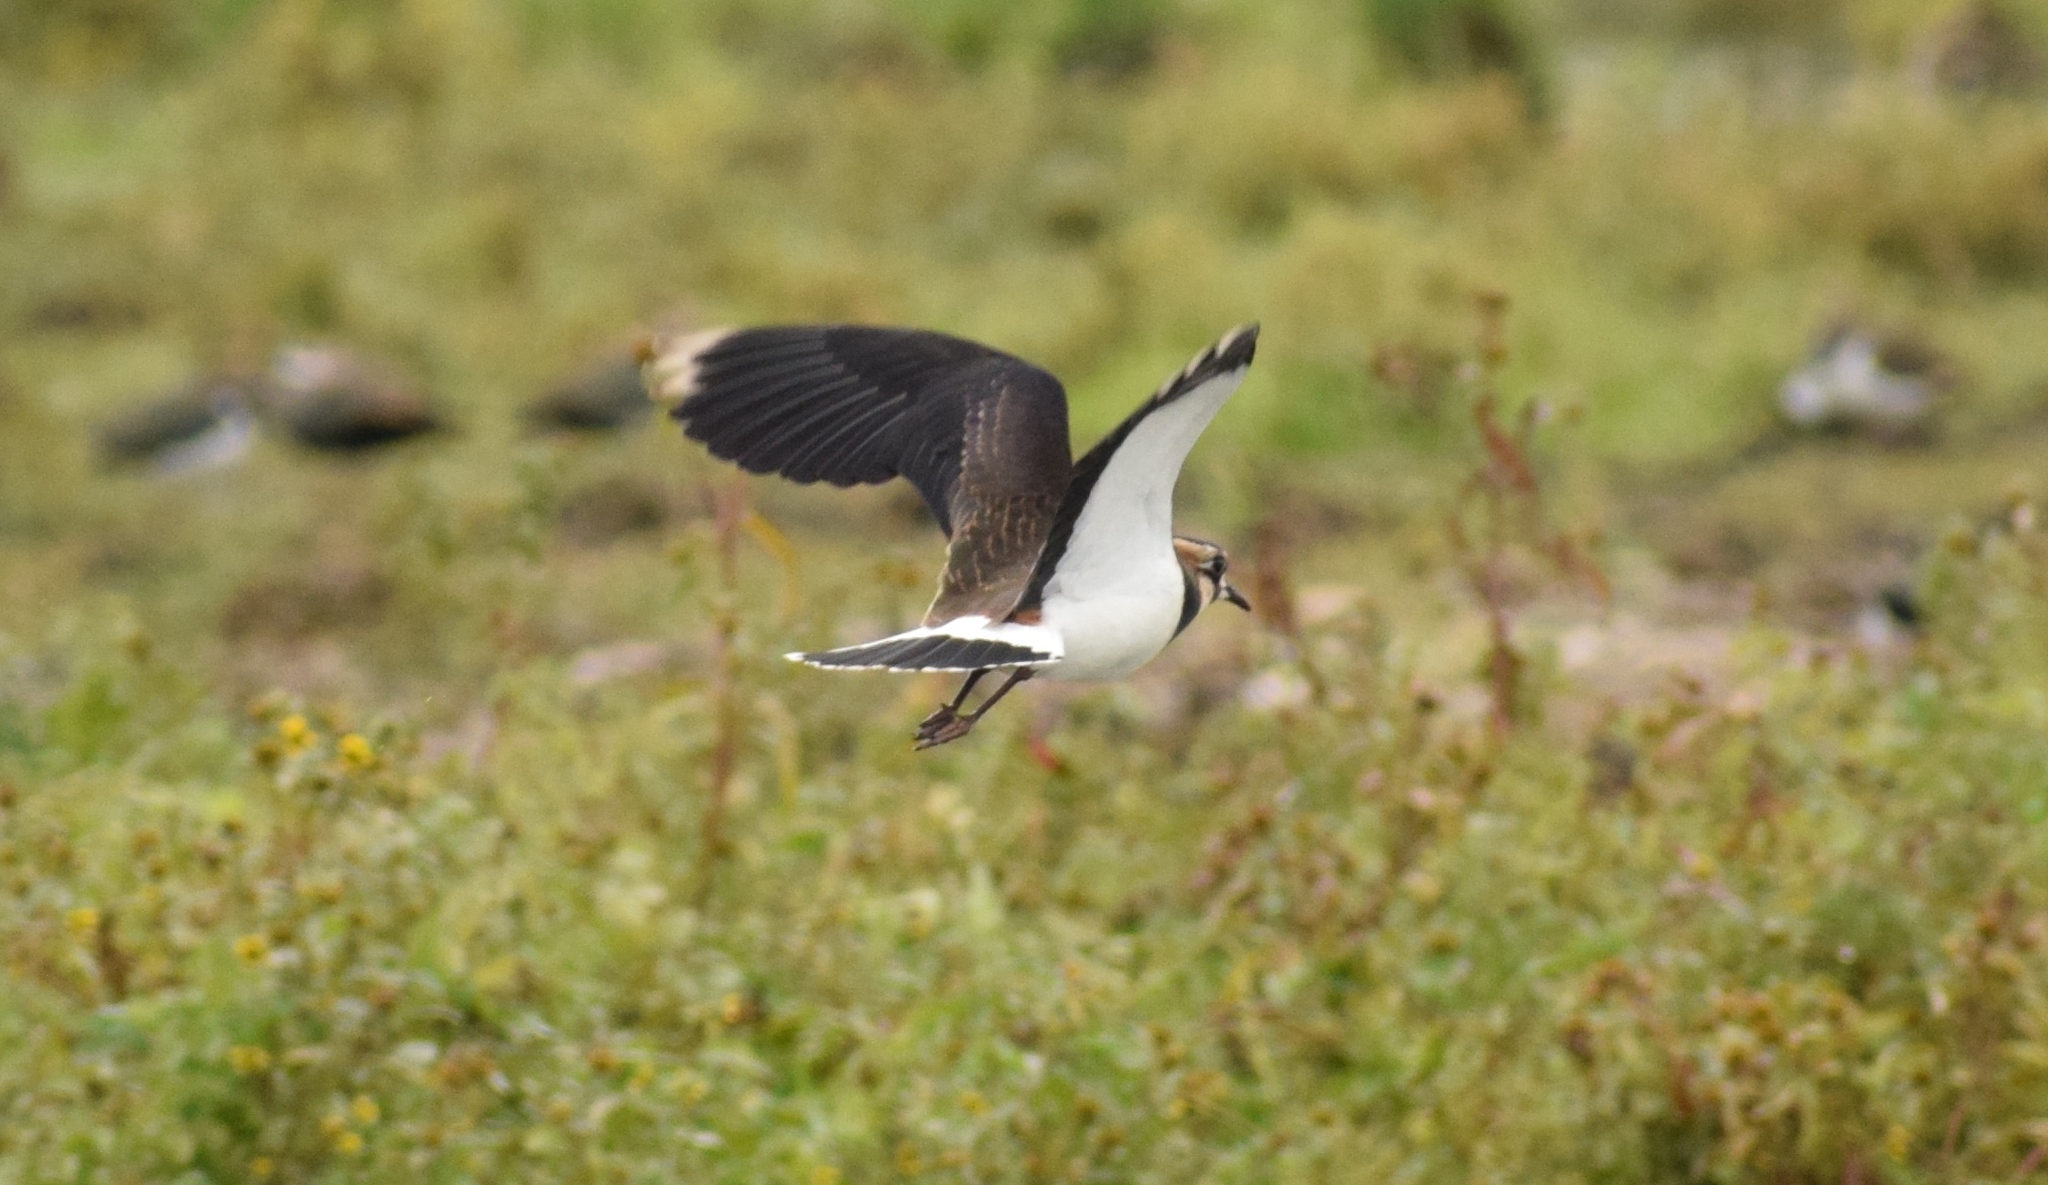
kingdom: Animalia
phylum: Chordata
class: Aves
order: Charadriiformes
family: Charadriidae
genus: Vanellus
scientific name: Vanellus vanellus
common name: Northern lapwing
